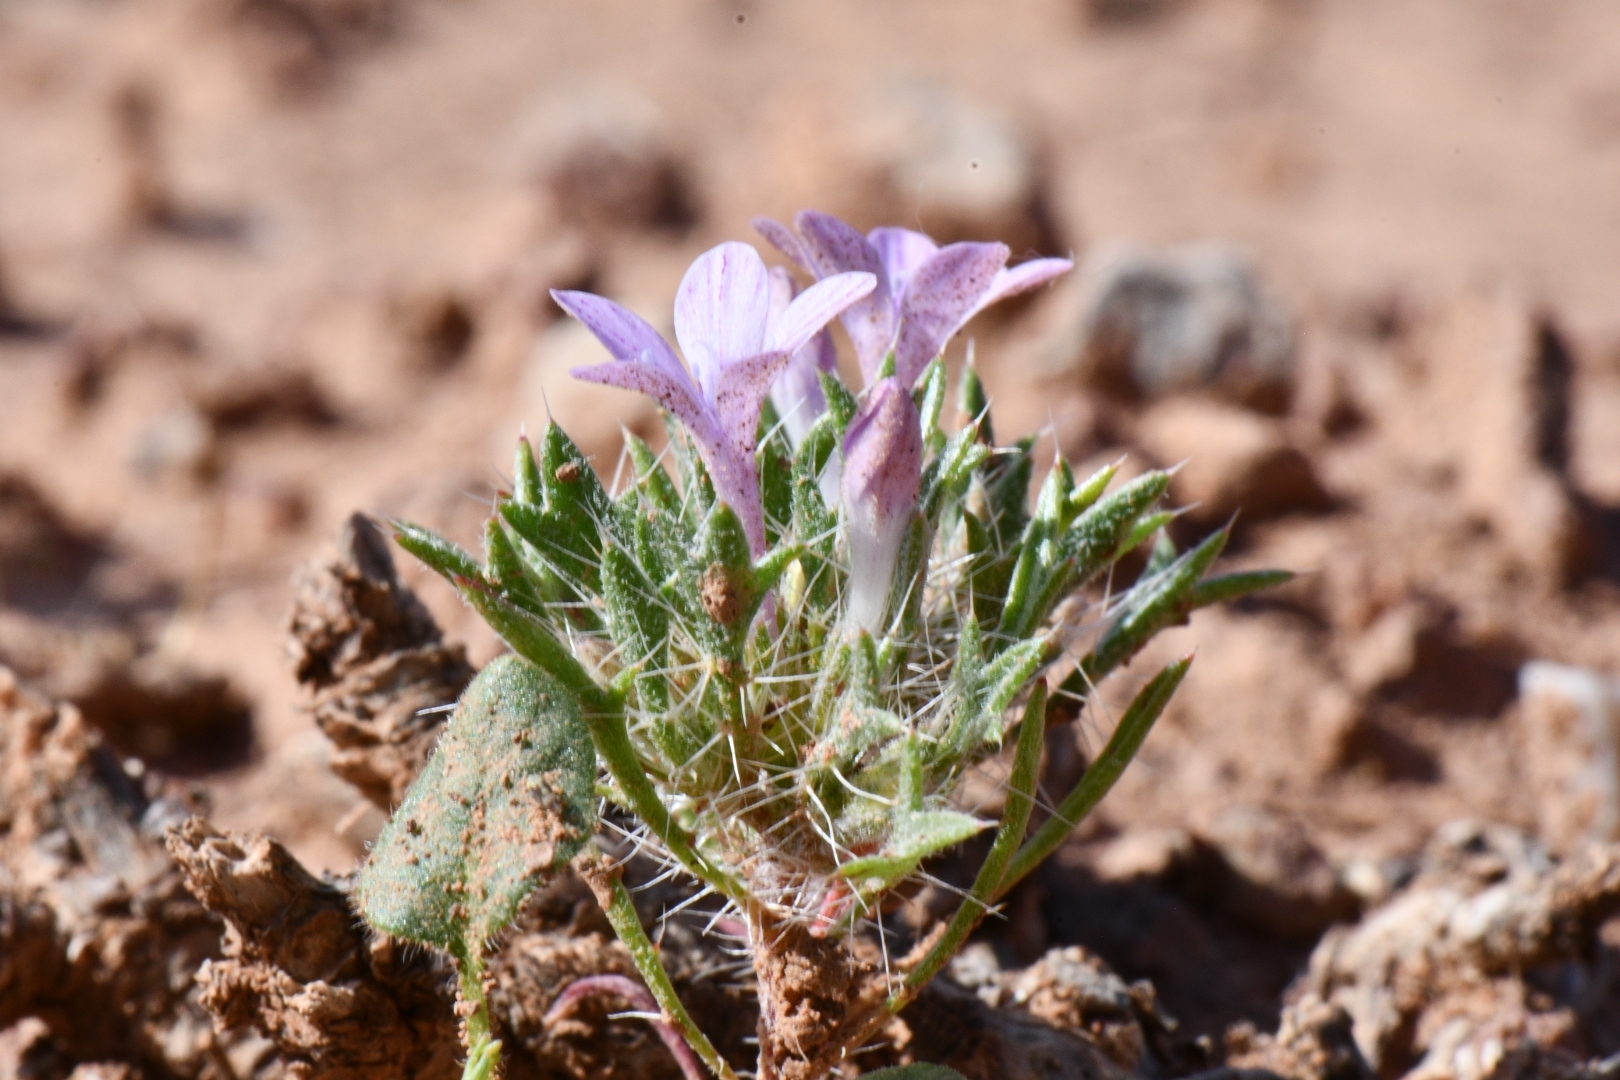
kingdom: Plantae
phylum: Tracheophyta
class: Magnoliopsida
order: Ericales
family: Polemoniaceae
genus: Langloisia
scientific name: Langloisia setosissima
